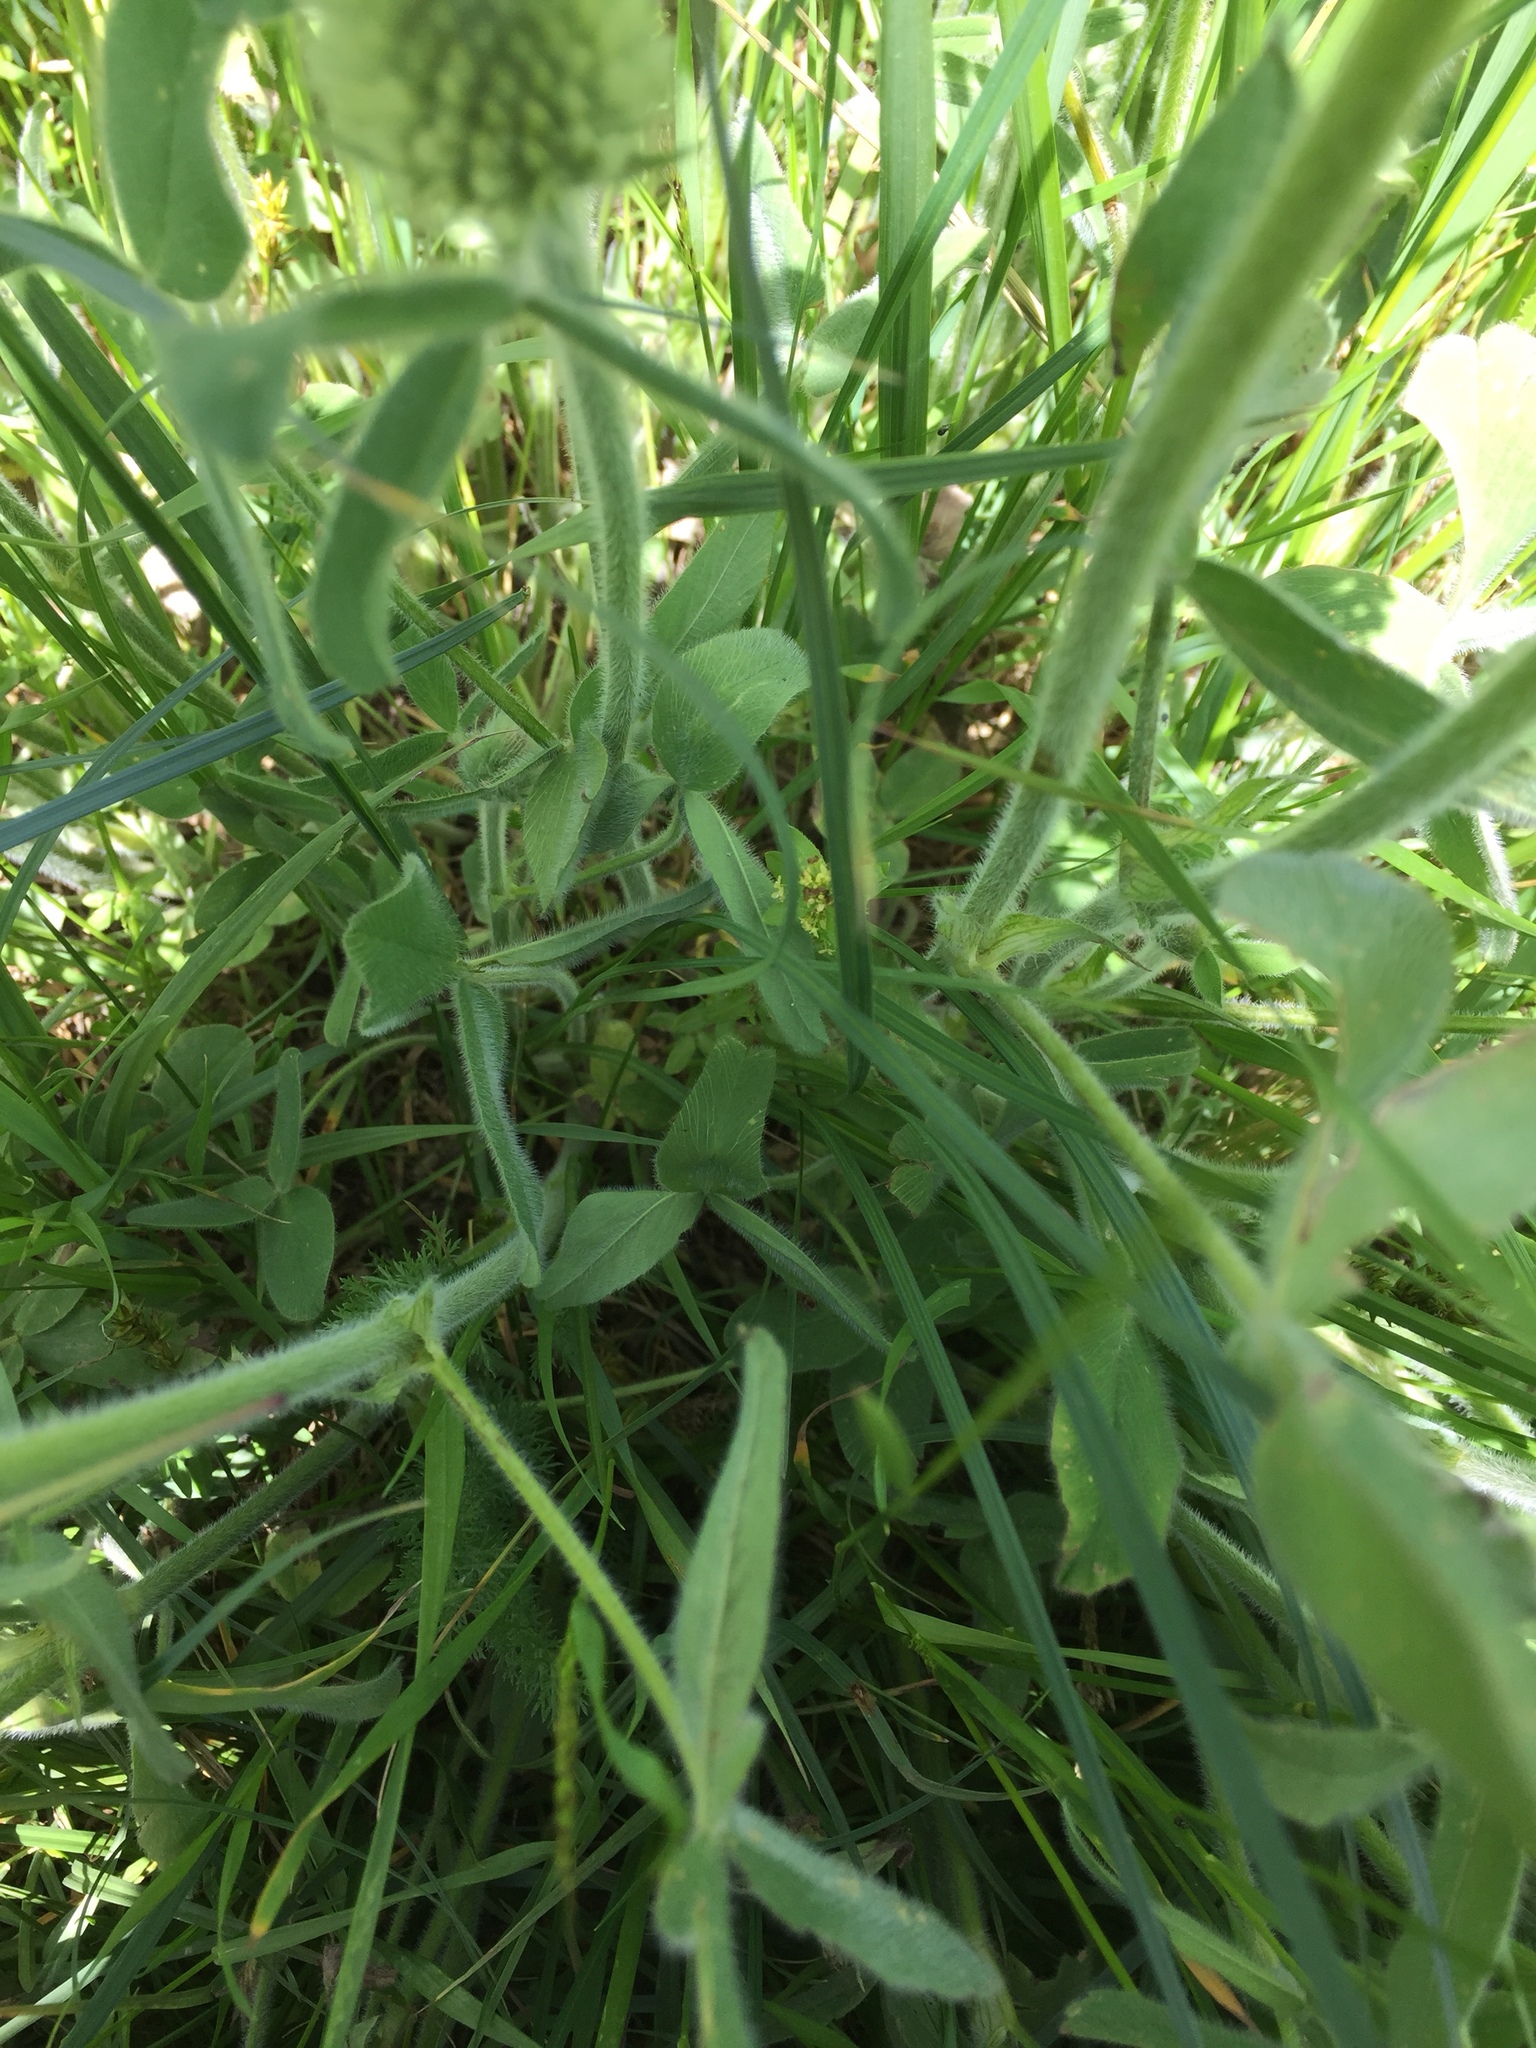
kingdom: Plantae
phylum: Tracheophyta
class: Magnoliopsida
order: Fabales
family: Fabaceae
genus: Trifolium
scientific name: Trifolium trichocephalum
